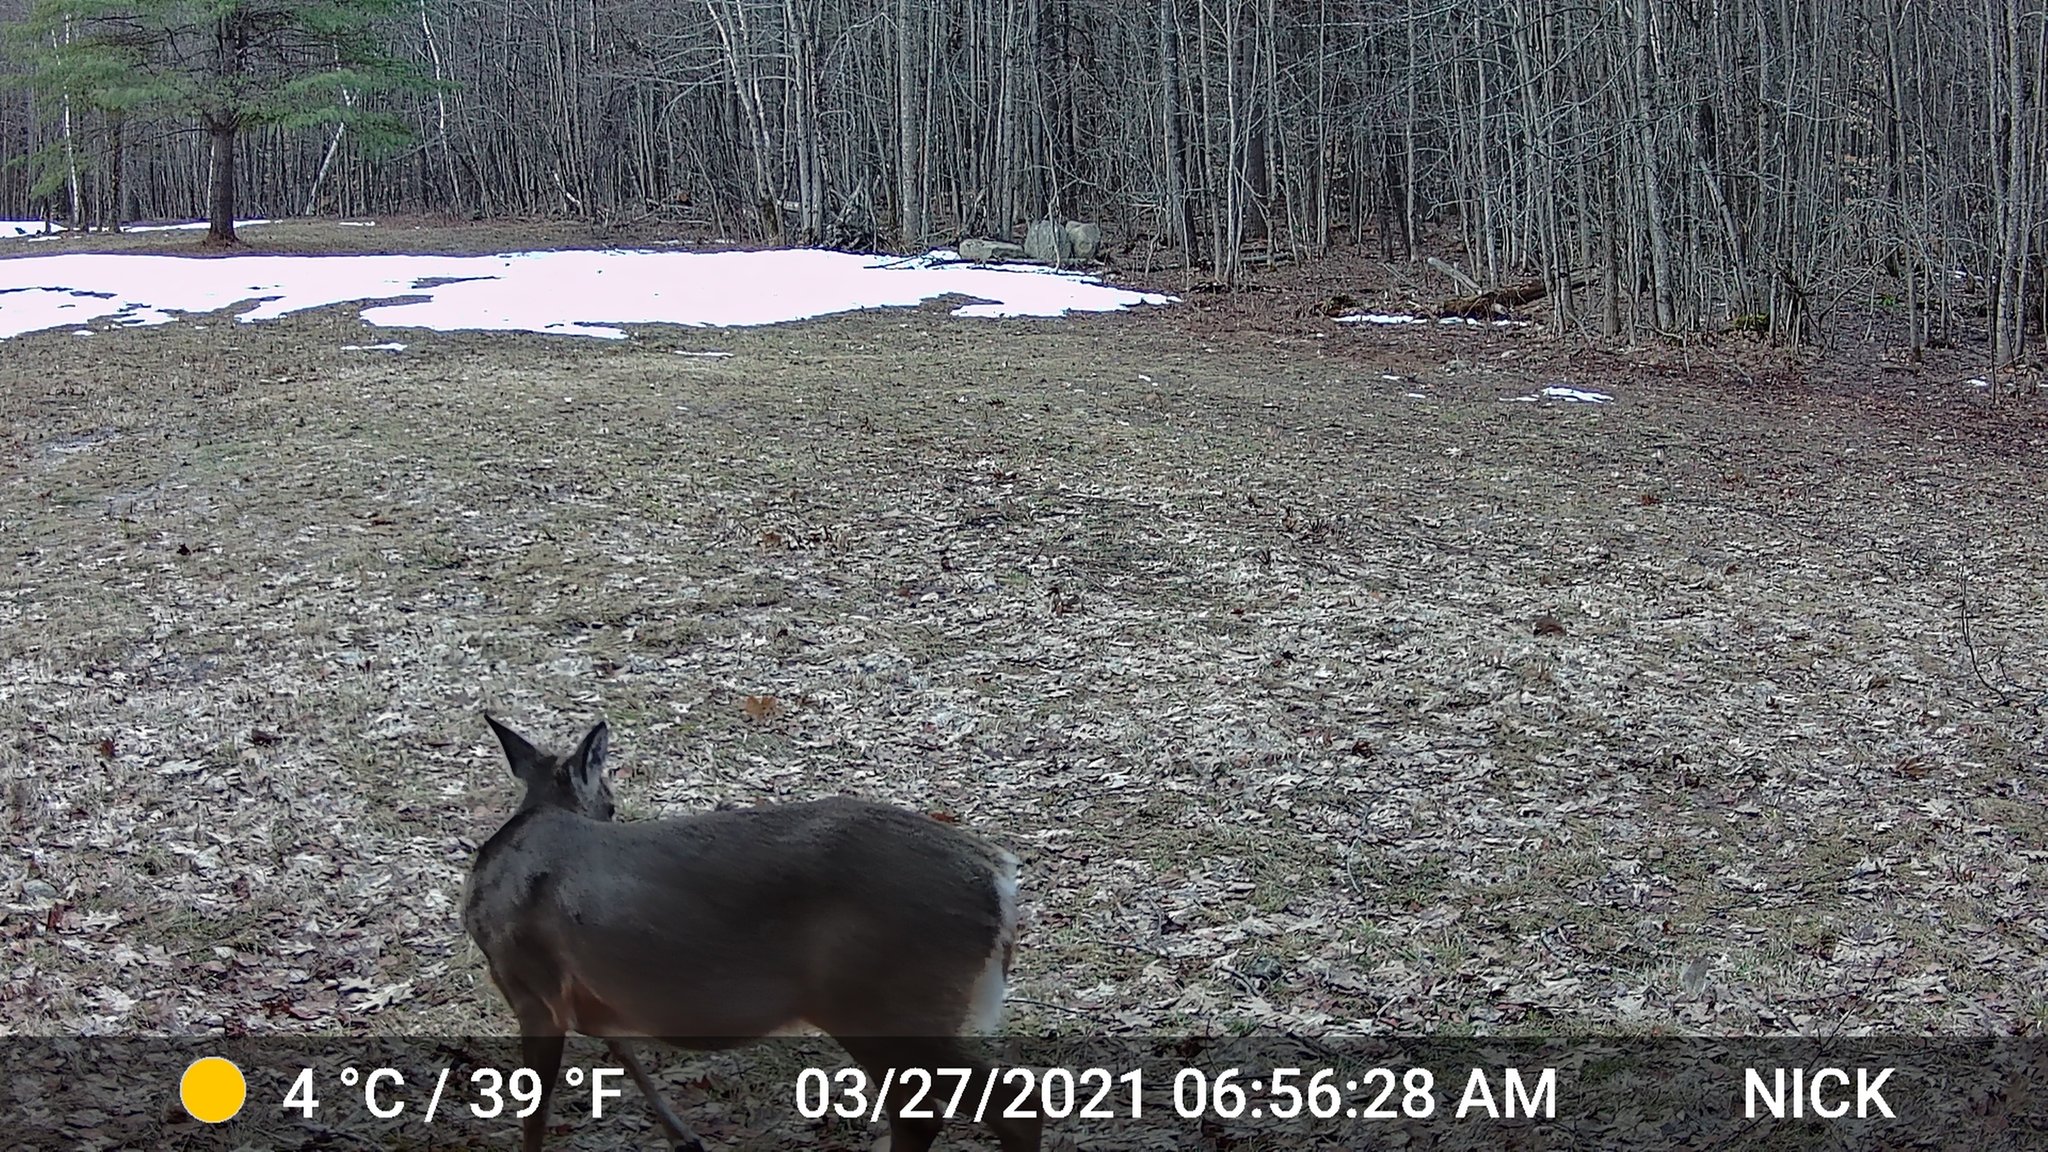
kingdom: Animalia
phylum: Chordata
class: Mammalia
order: Artiodactyla
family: Cervidae
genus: Odocoileus
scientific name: Odocoileus virginianus
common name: White-tailed deer
